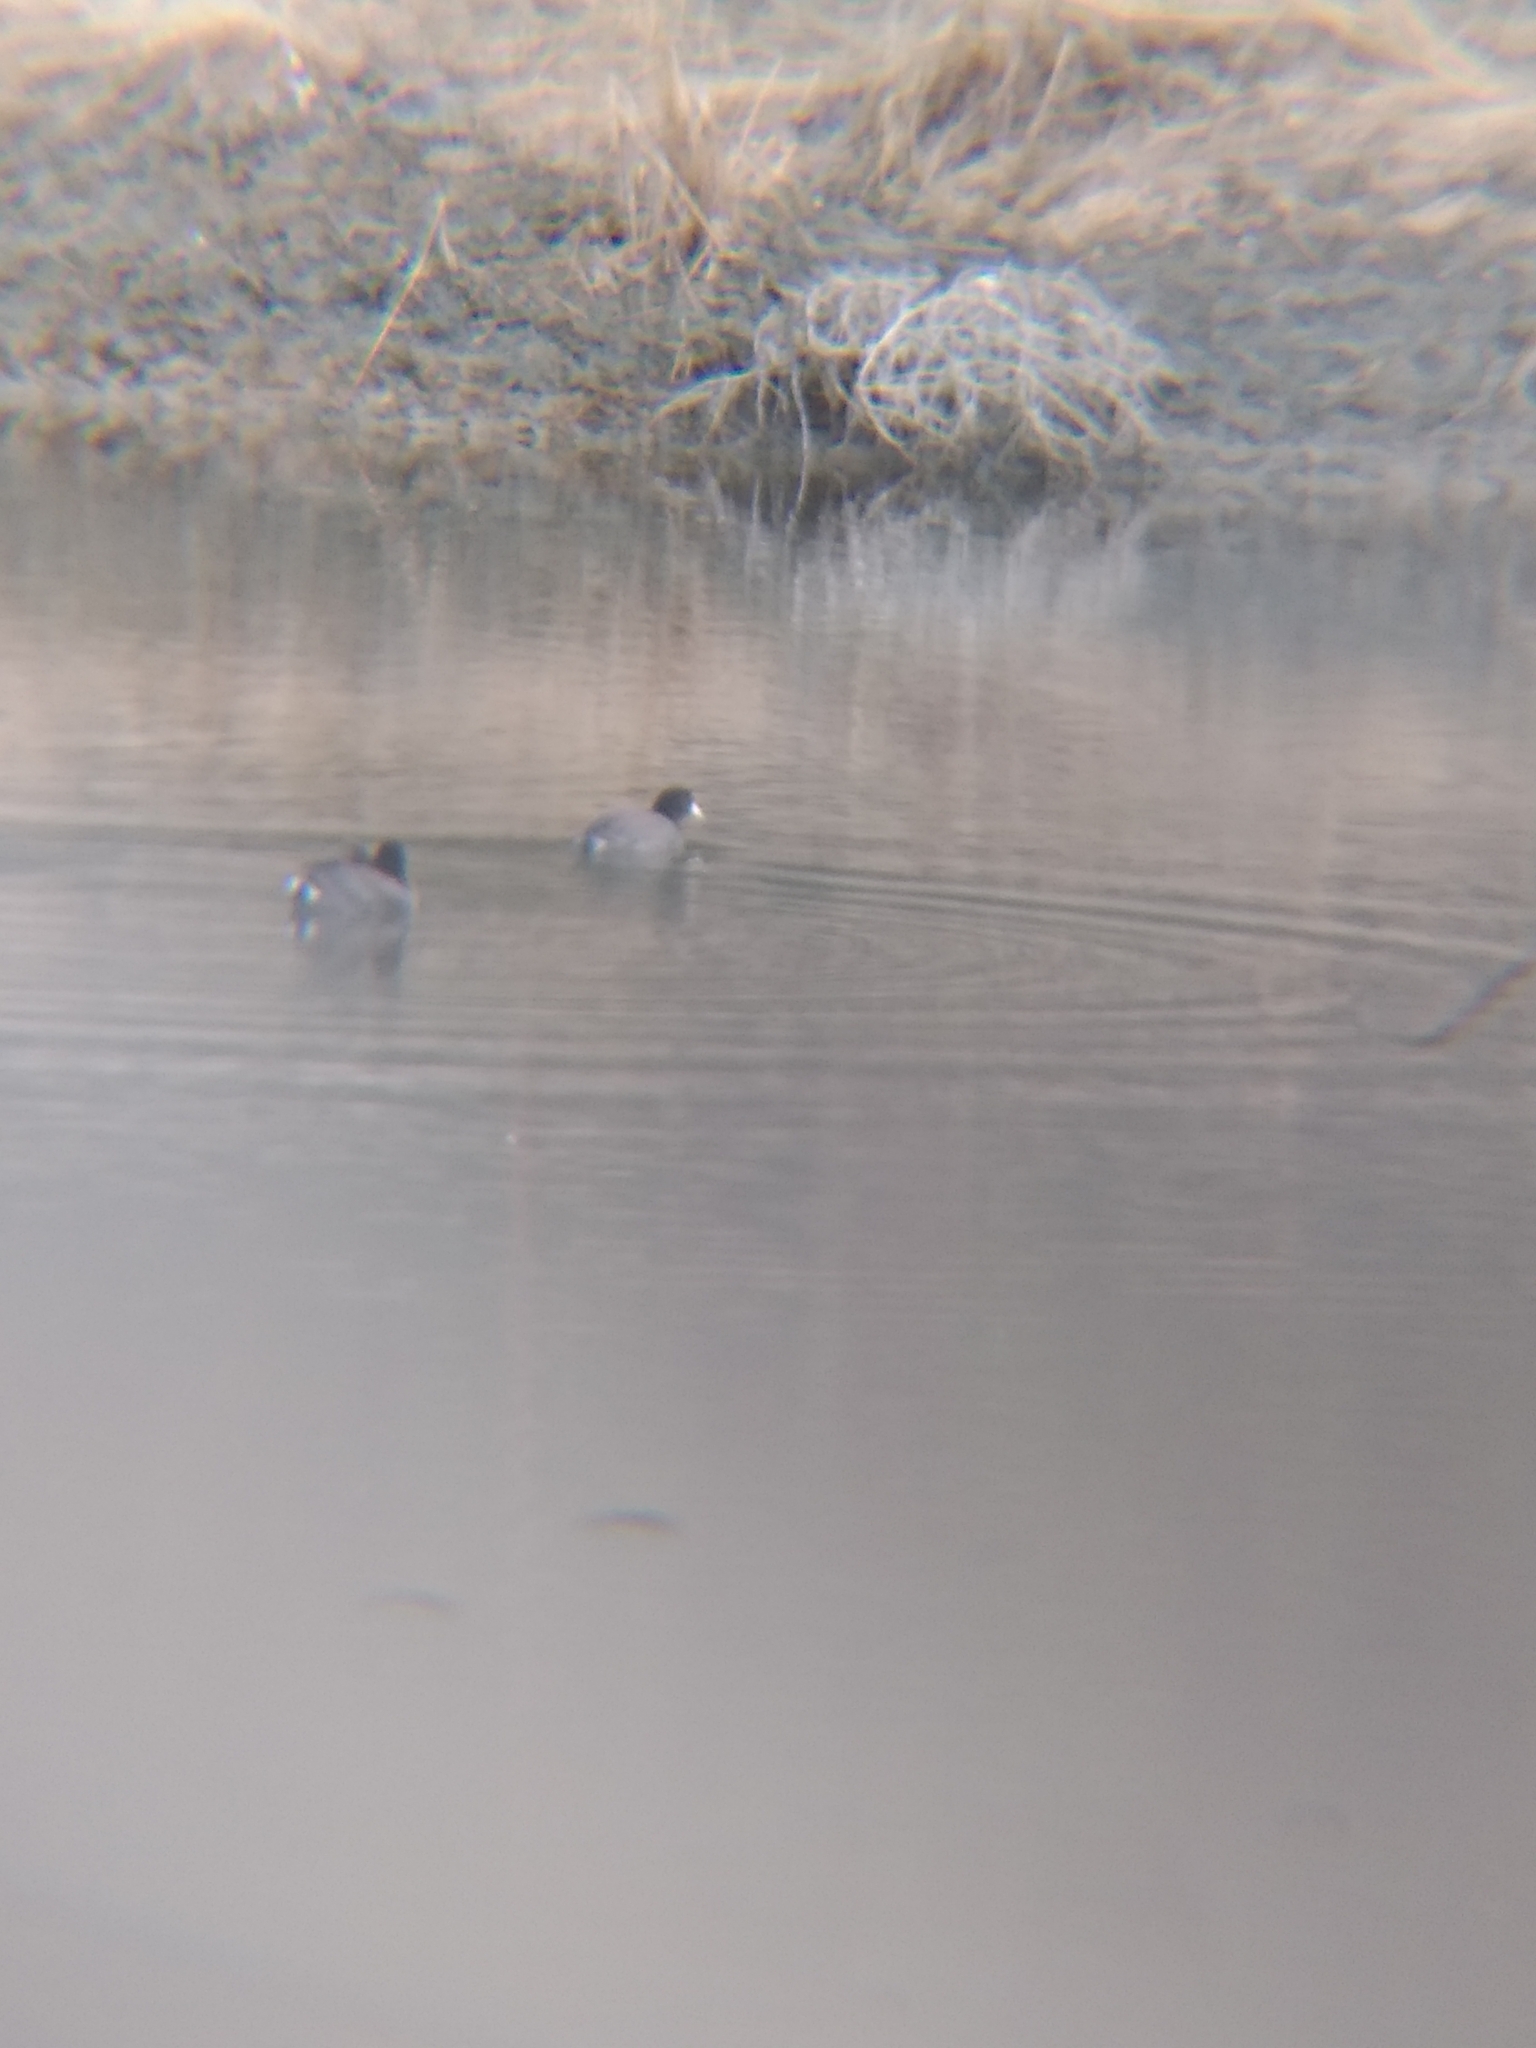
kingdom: Animalia
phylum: Chordata
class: Aves
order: Gruiformes
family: Rallidae
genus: Fulica
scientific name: Fulica americana
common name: American coot
